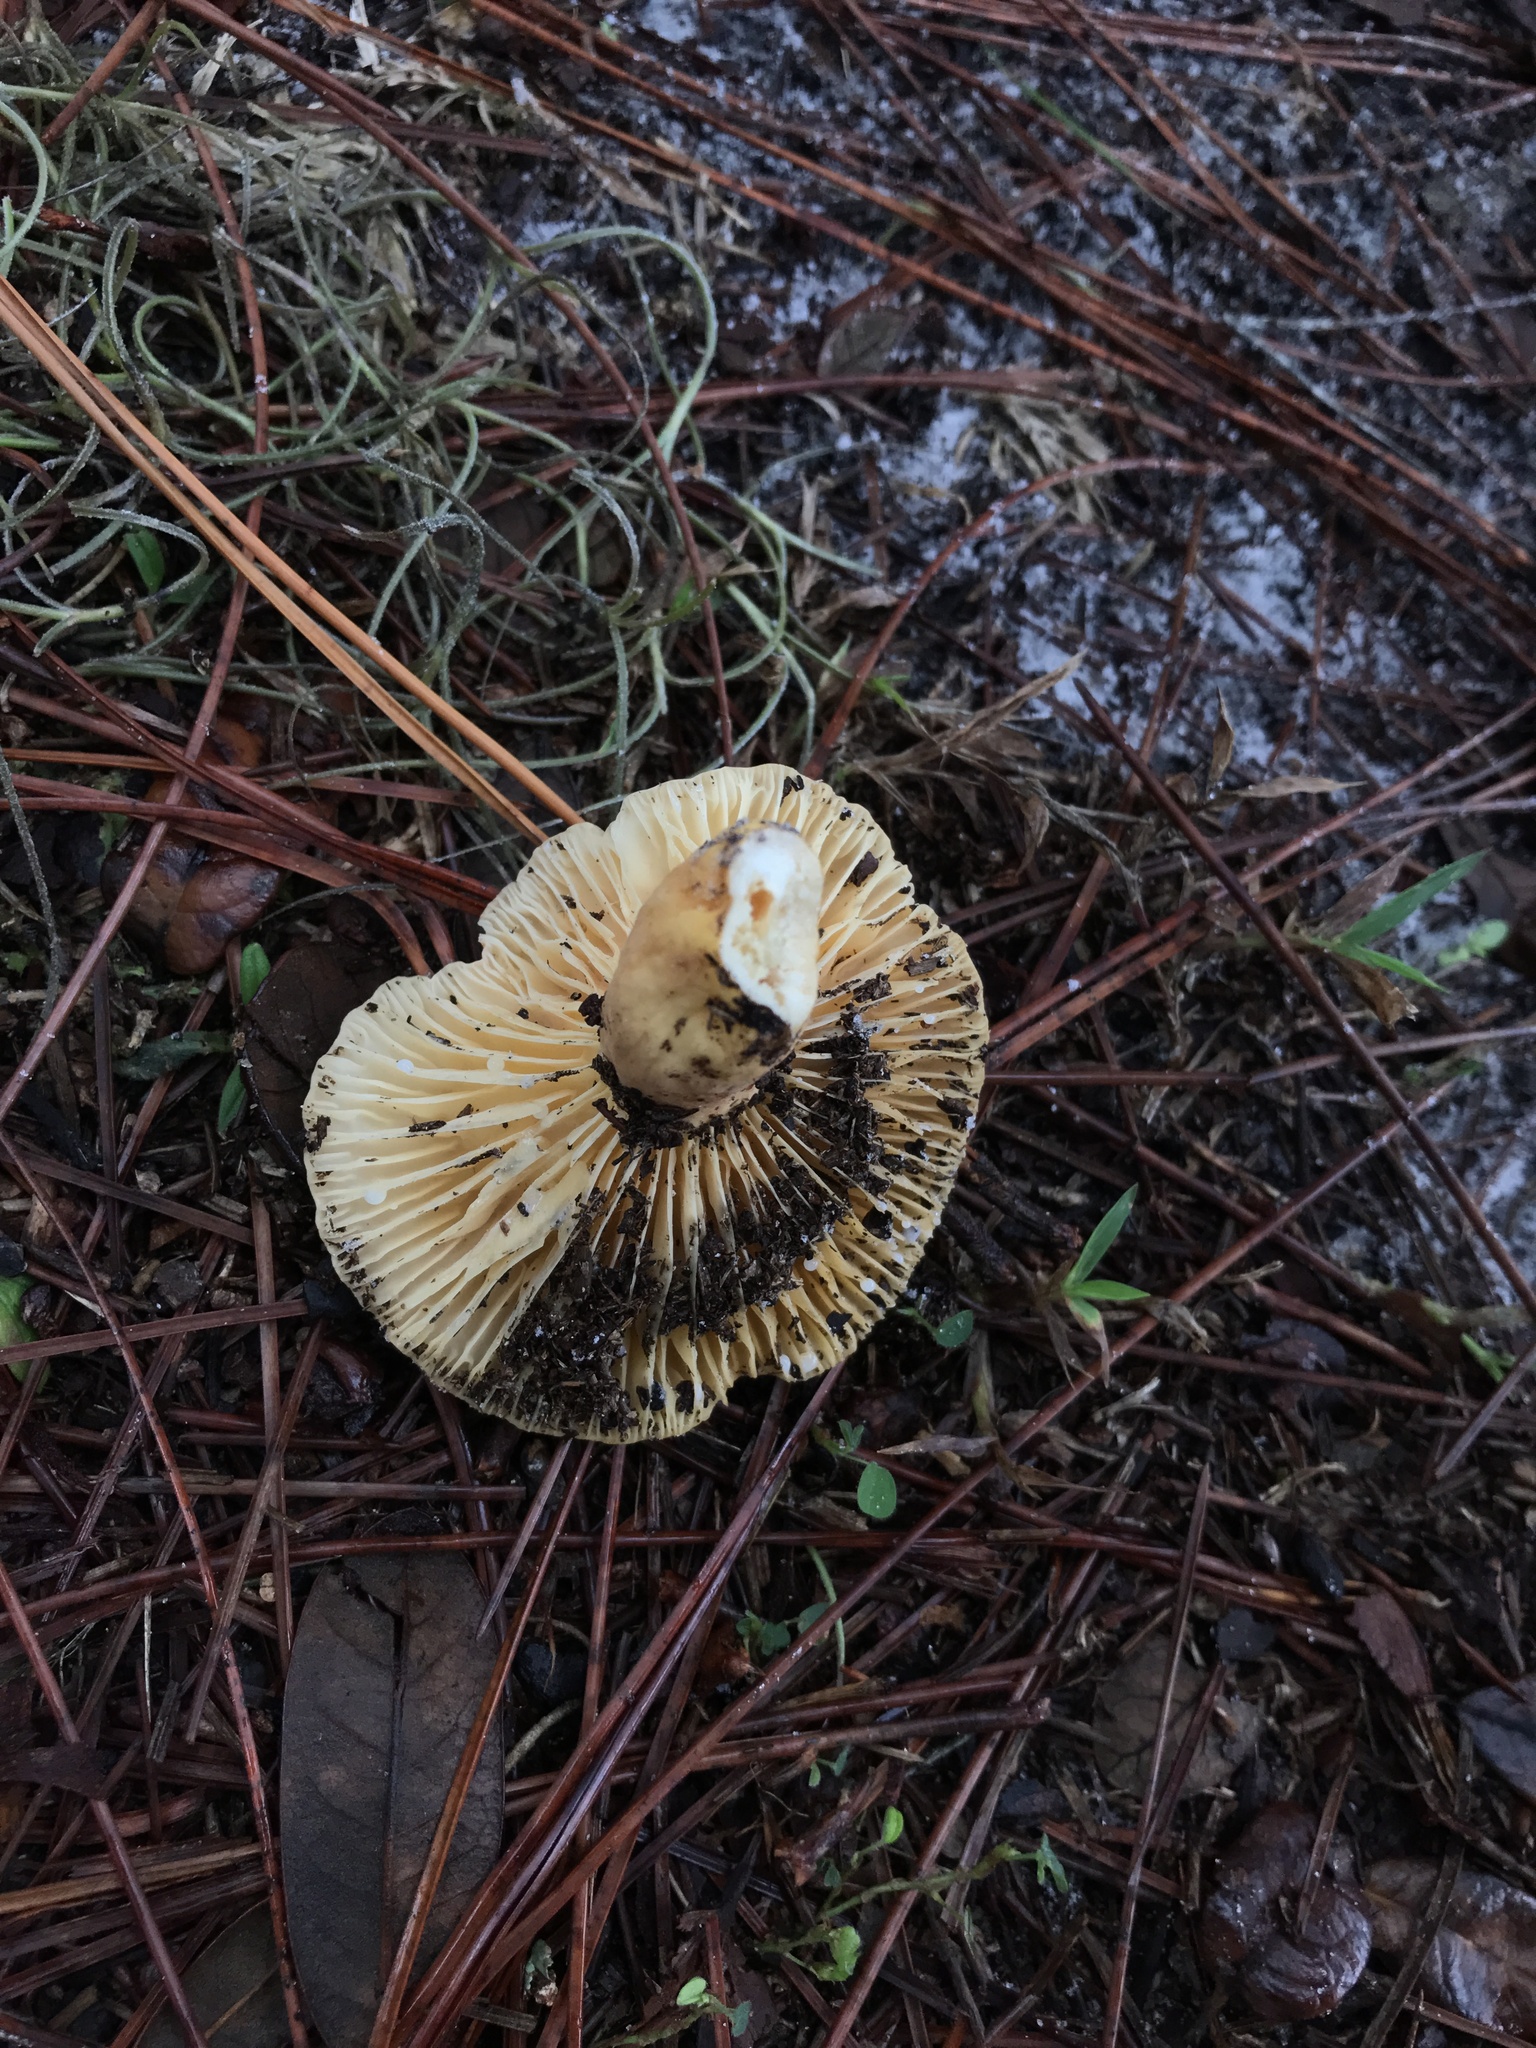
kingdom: Fungi
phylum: Basidiomycota
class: Agaricomycetes
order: Russulales
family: Russulaceae
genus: Lactarius
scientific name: Lactarius hygrophoroides
